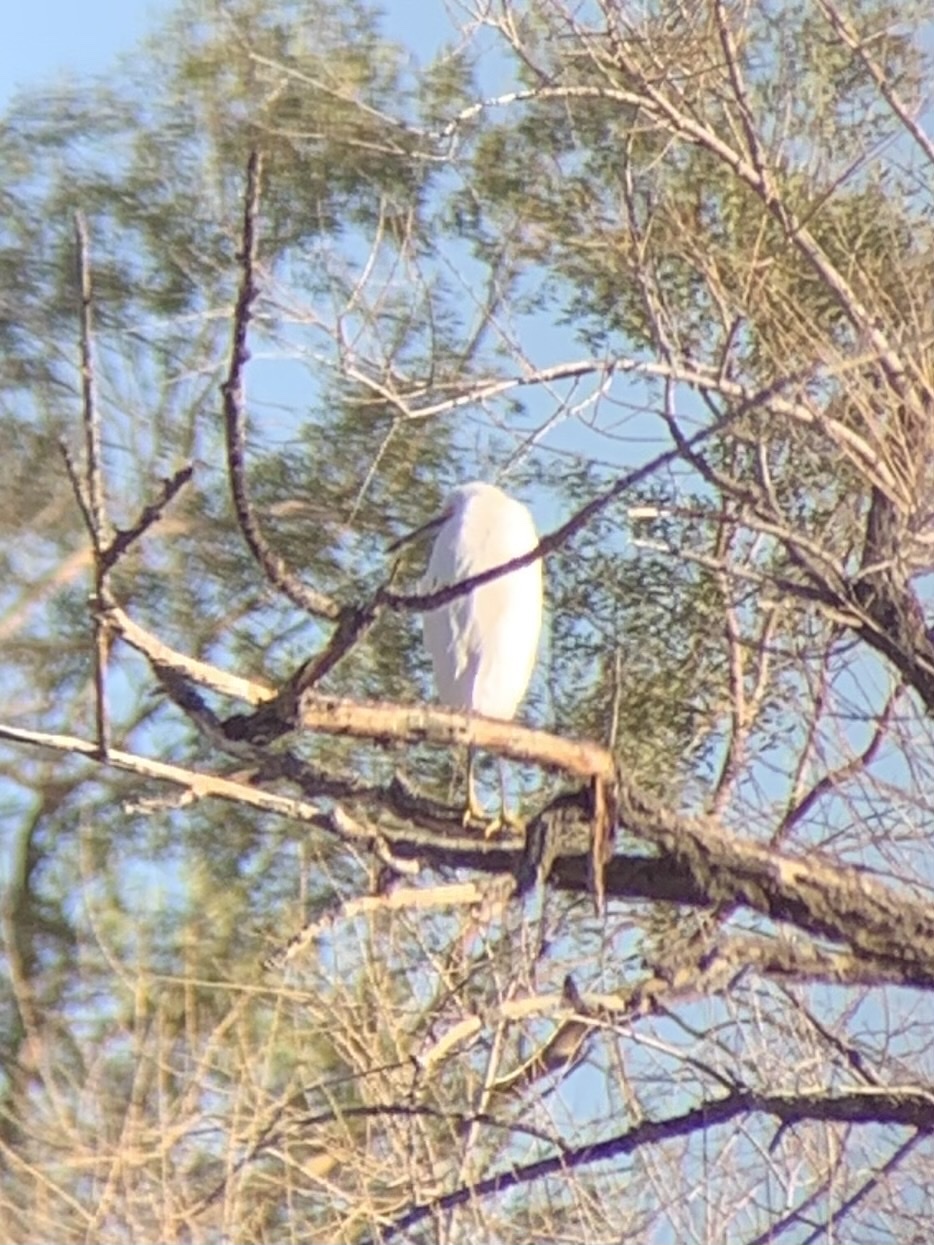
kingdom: Animalia
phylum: Chordata
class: Aves
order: Pelecaniformes
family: Ardeidae
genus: Egretta
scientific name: Egretta thula
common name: Snowy egret
